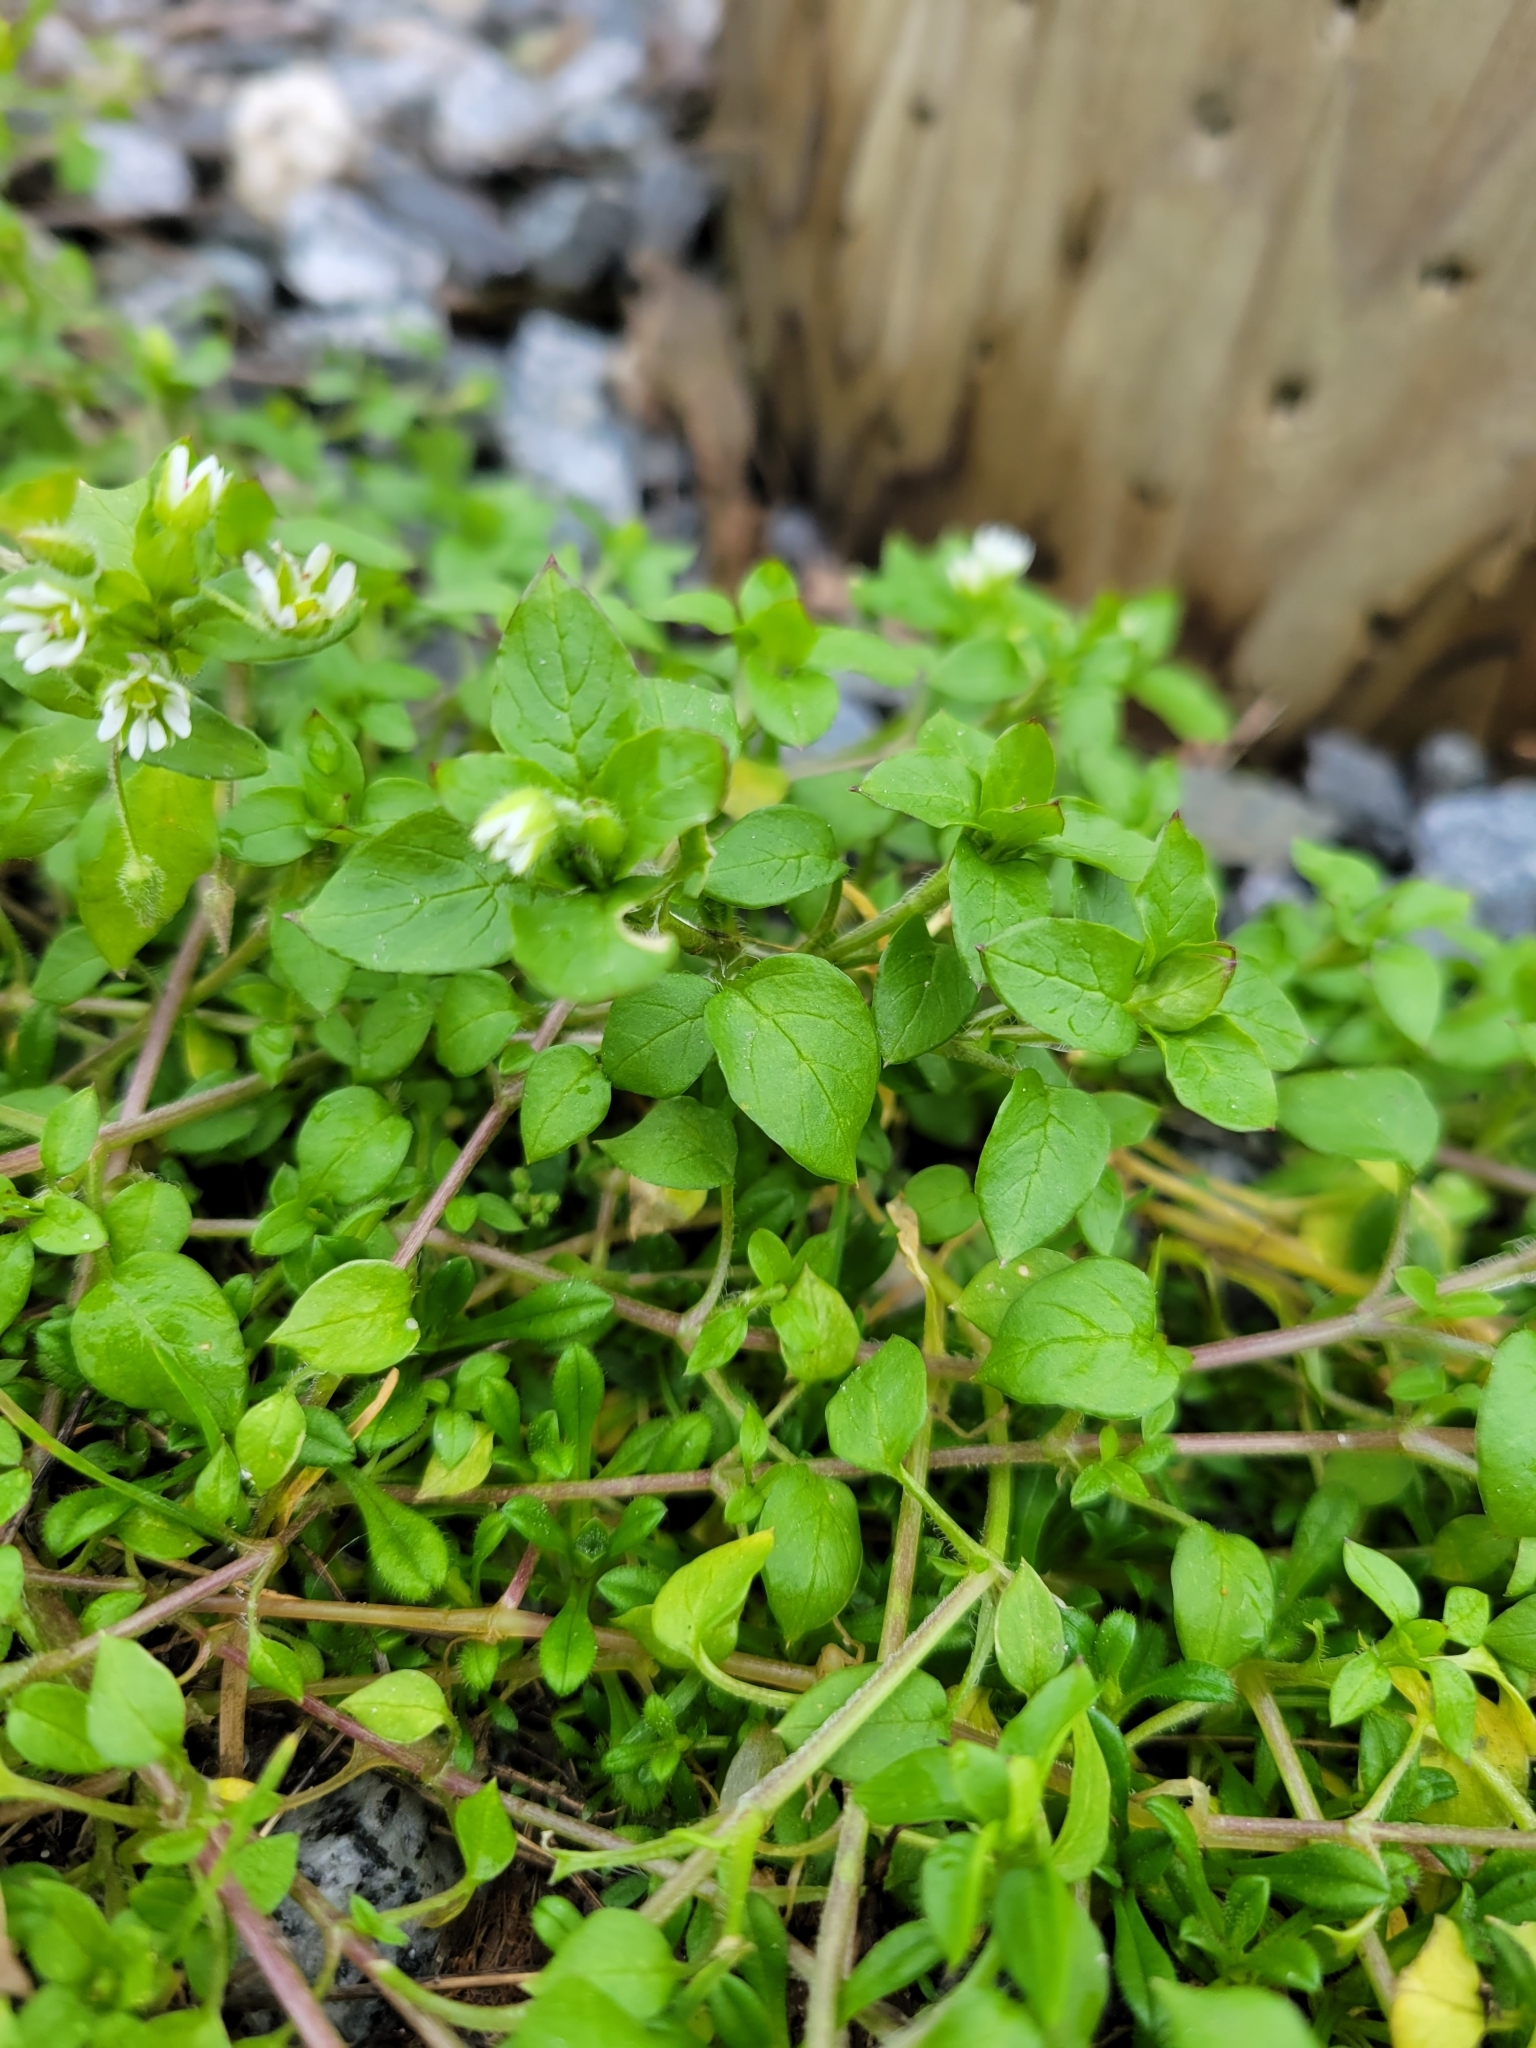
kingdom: Plantae
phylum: Tracheophyta
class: Magnoliopsida
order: Caryophyllales
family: Caryophyllaceae
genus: Stellaria
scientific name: Stellaria media
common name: Common chickweed
